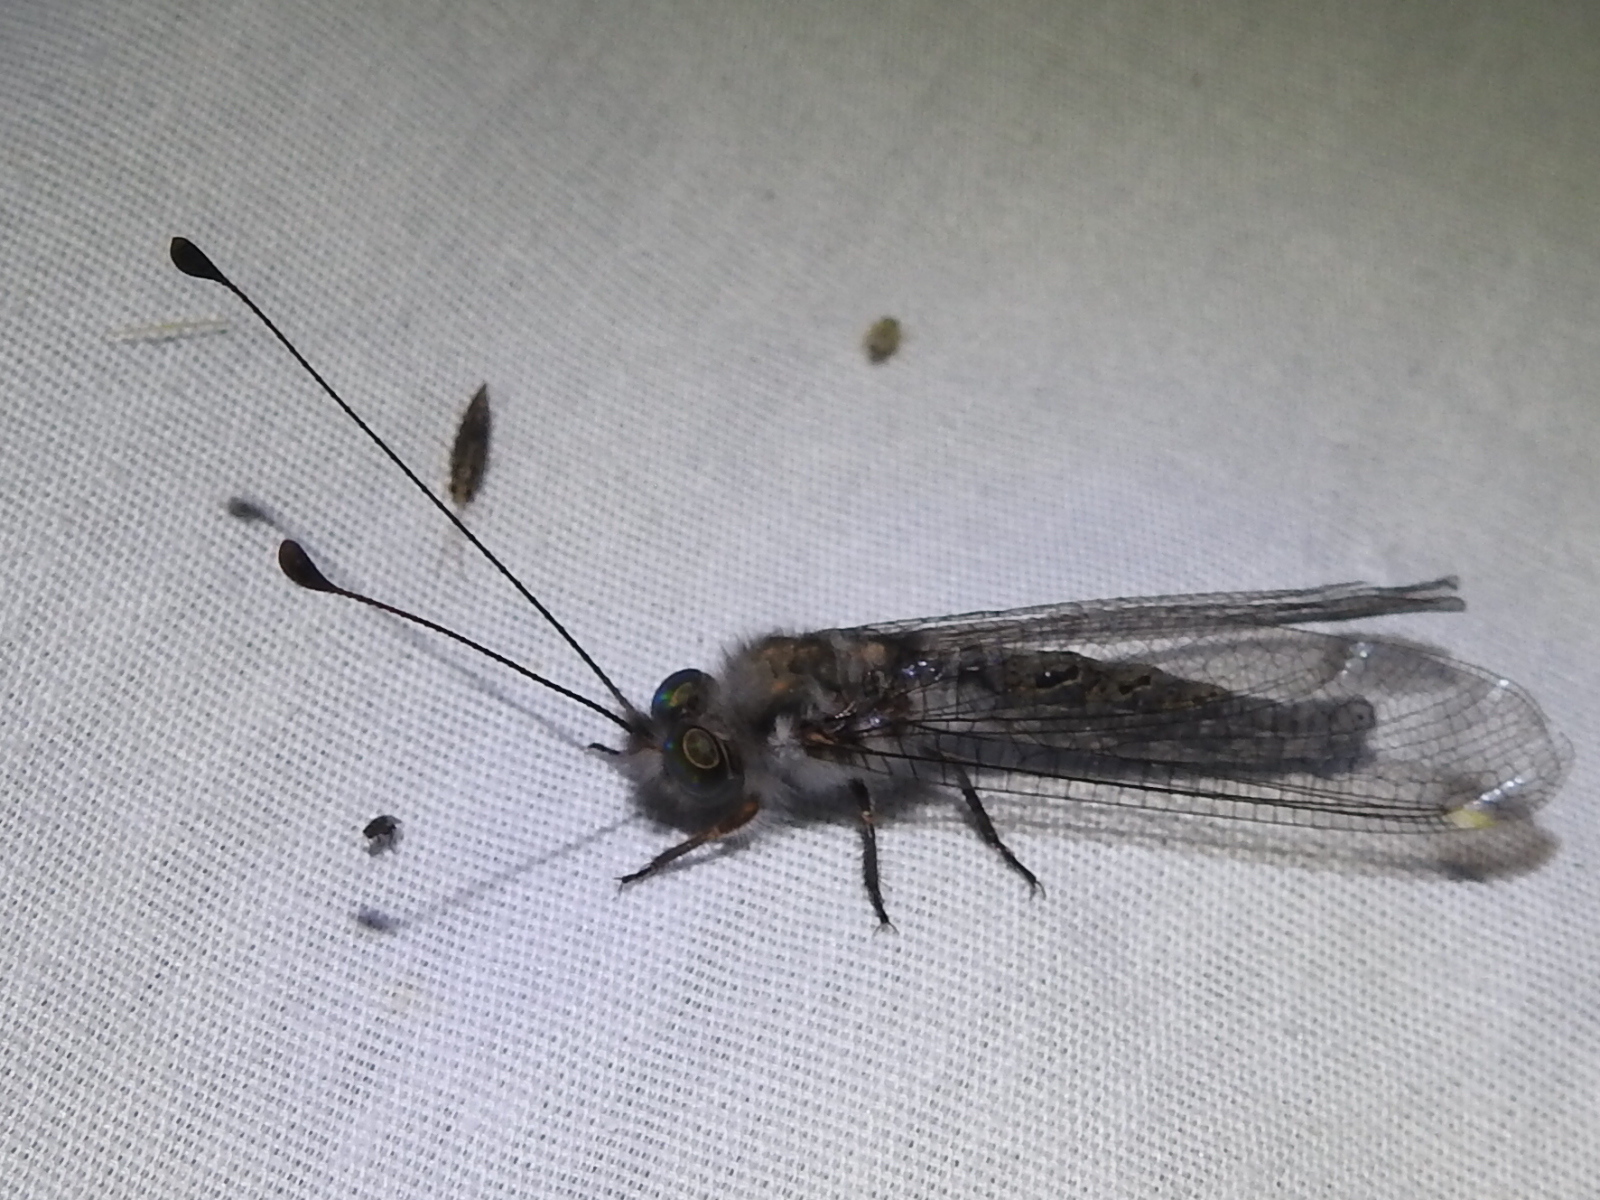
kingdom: Animalia
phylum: Arthropoda
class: Insecta
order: Neuroptera
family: Ascalaphidae
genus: Ululodes
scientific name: Ululodes quadripunctatus
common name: Four-spotted owlfly
